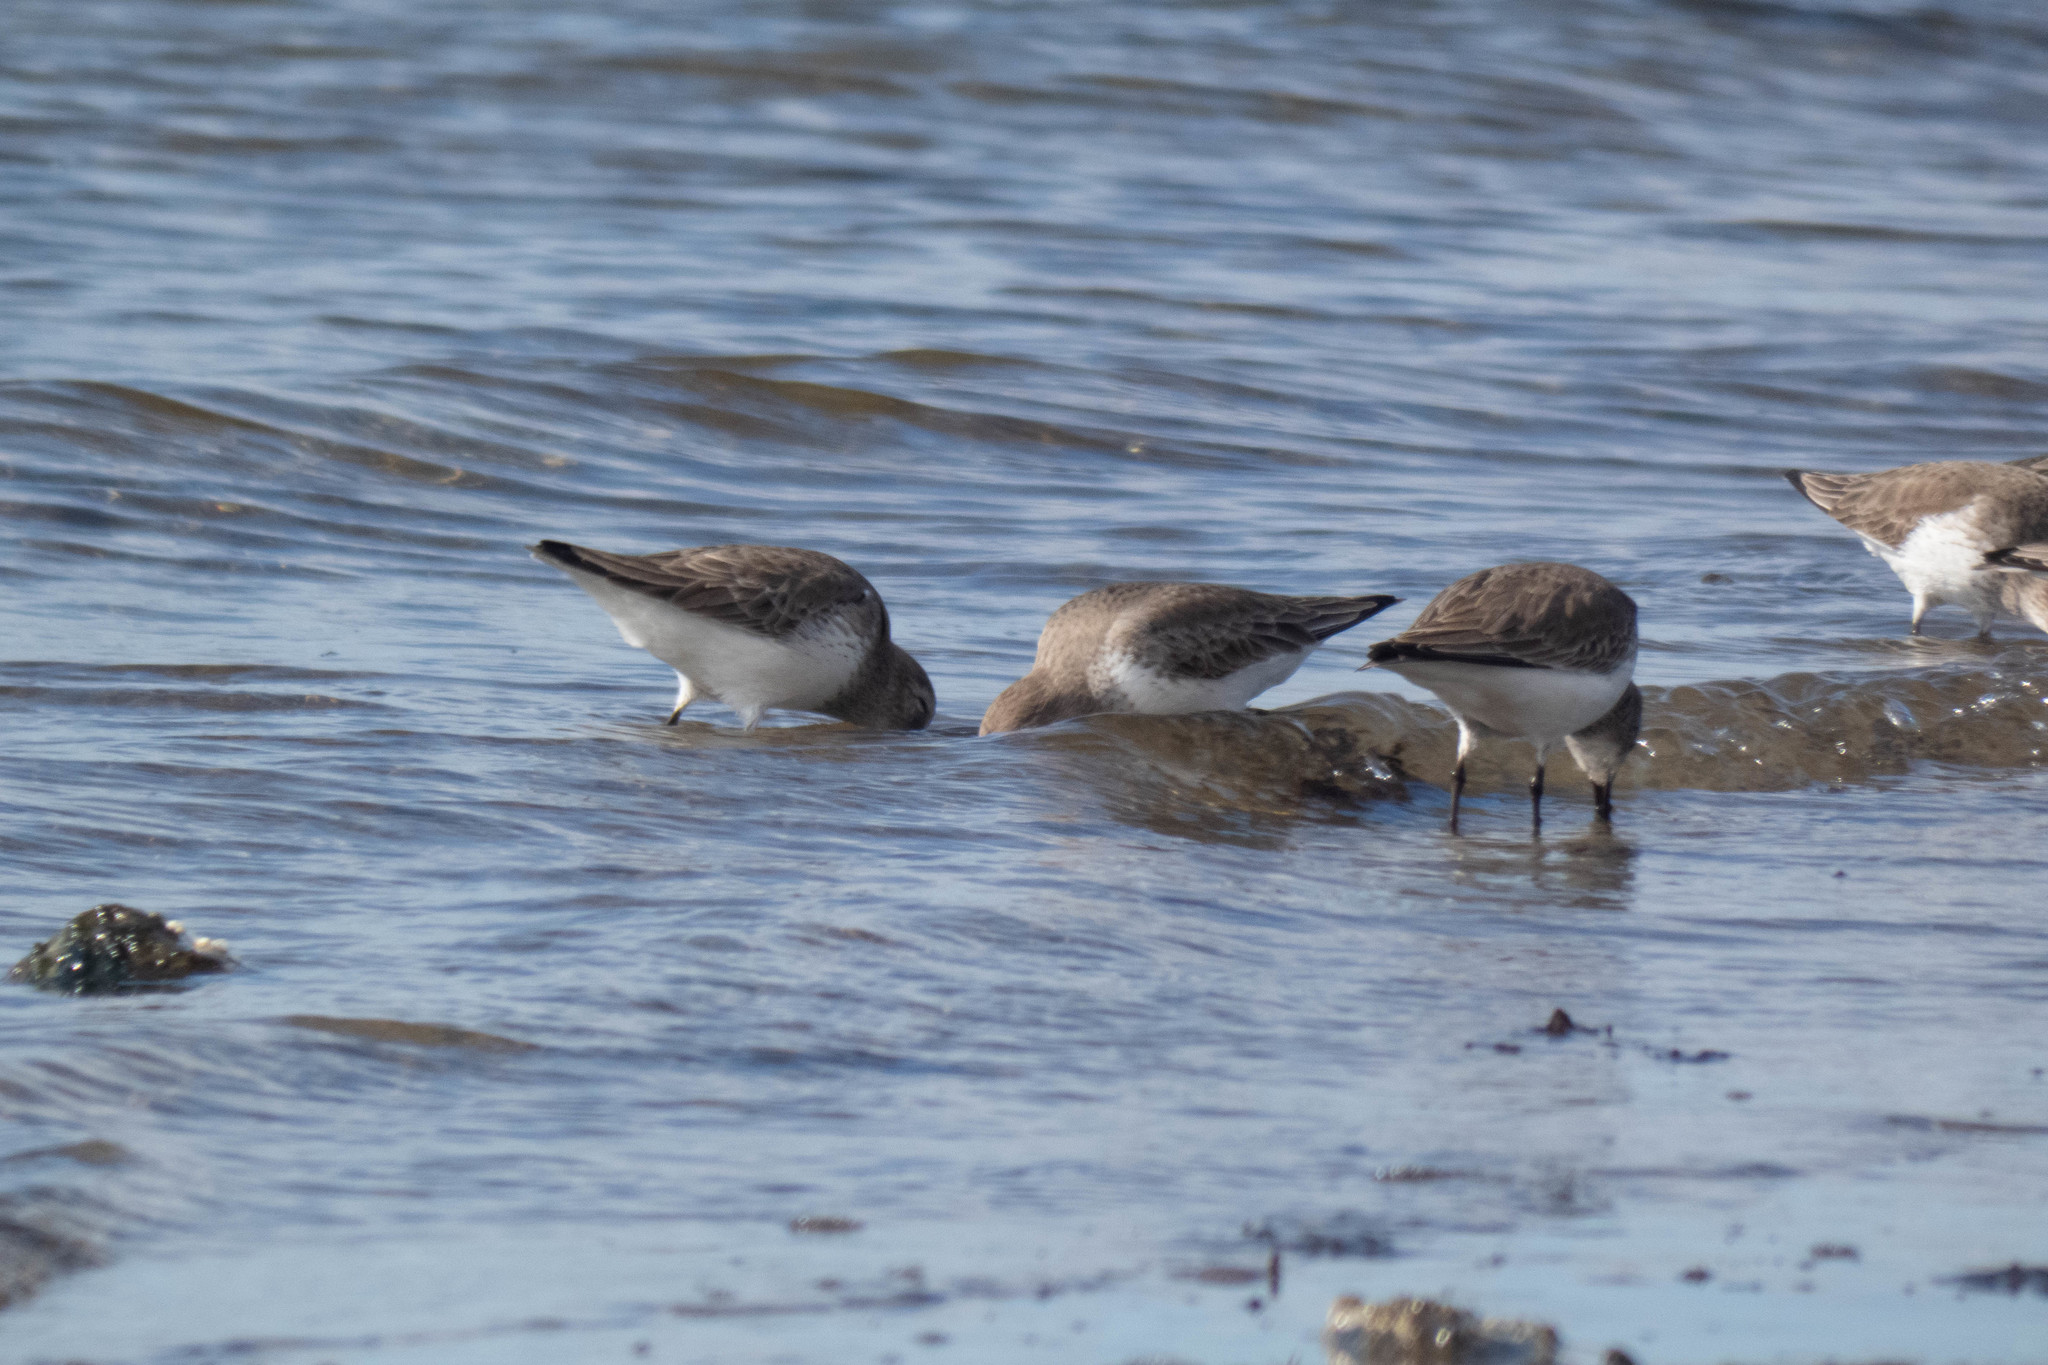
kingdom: Animalia
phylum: Chordata
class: Aves
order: Charadriiformes
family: Scolopacidae
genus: Calidris
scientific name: Calidris alpina
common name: Dunlin
